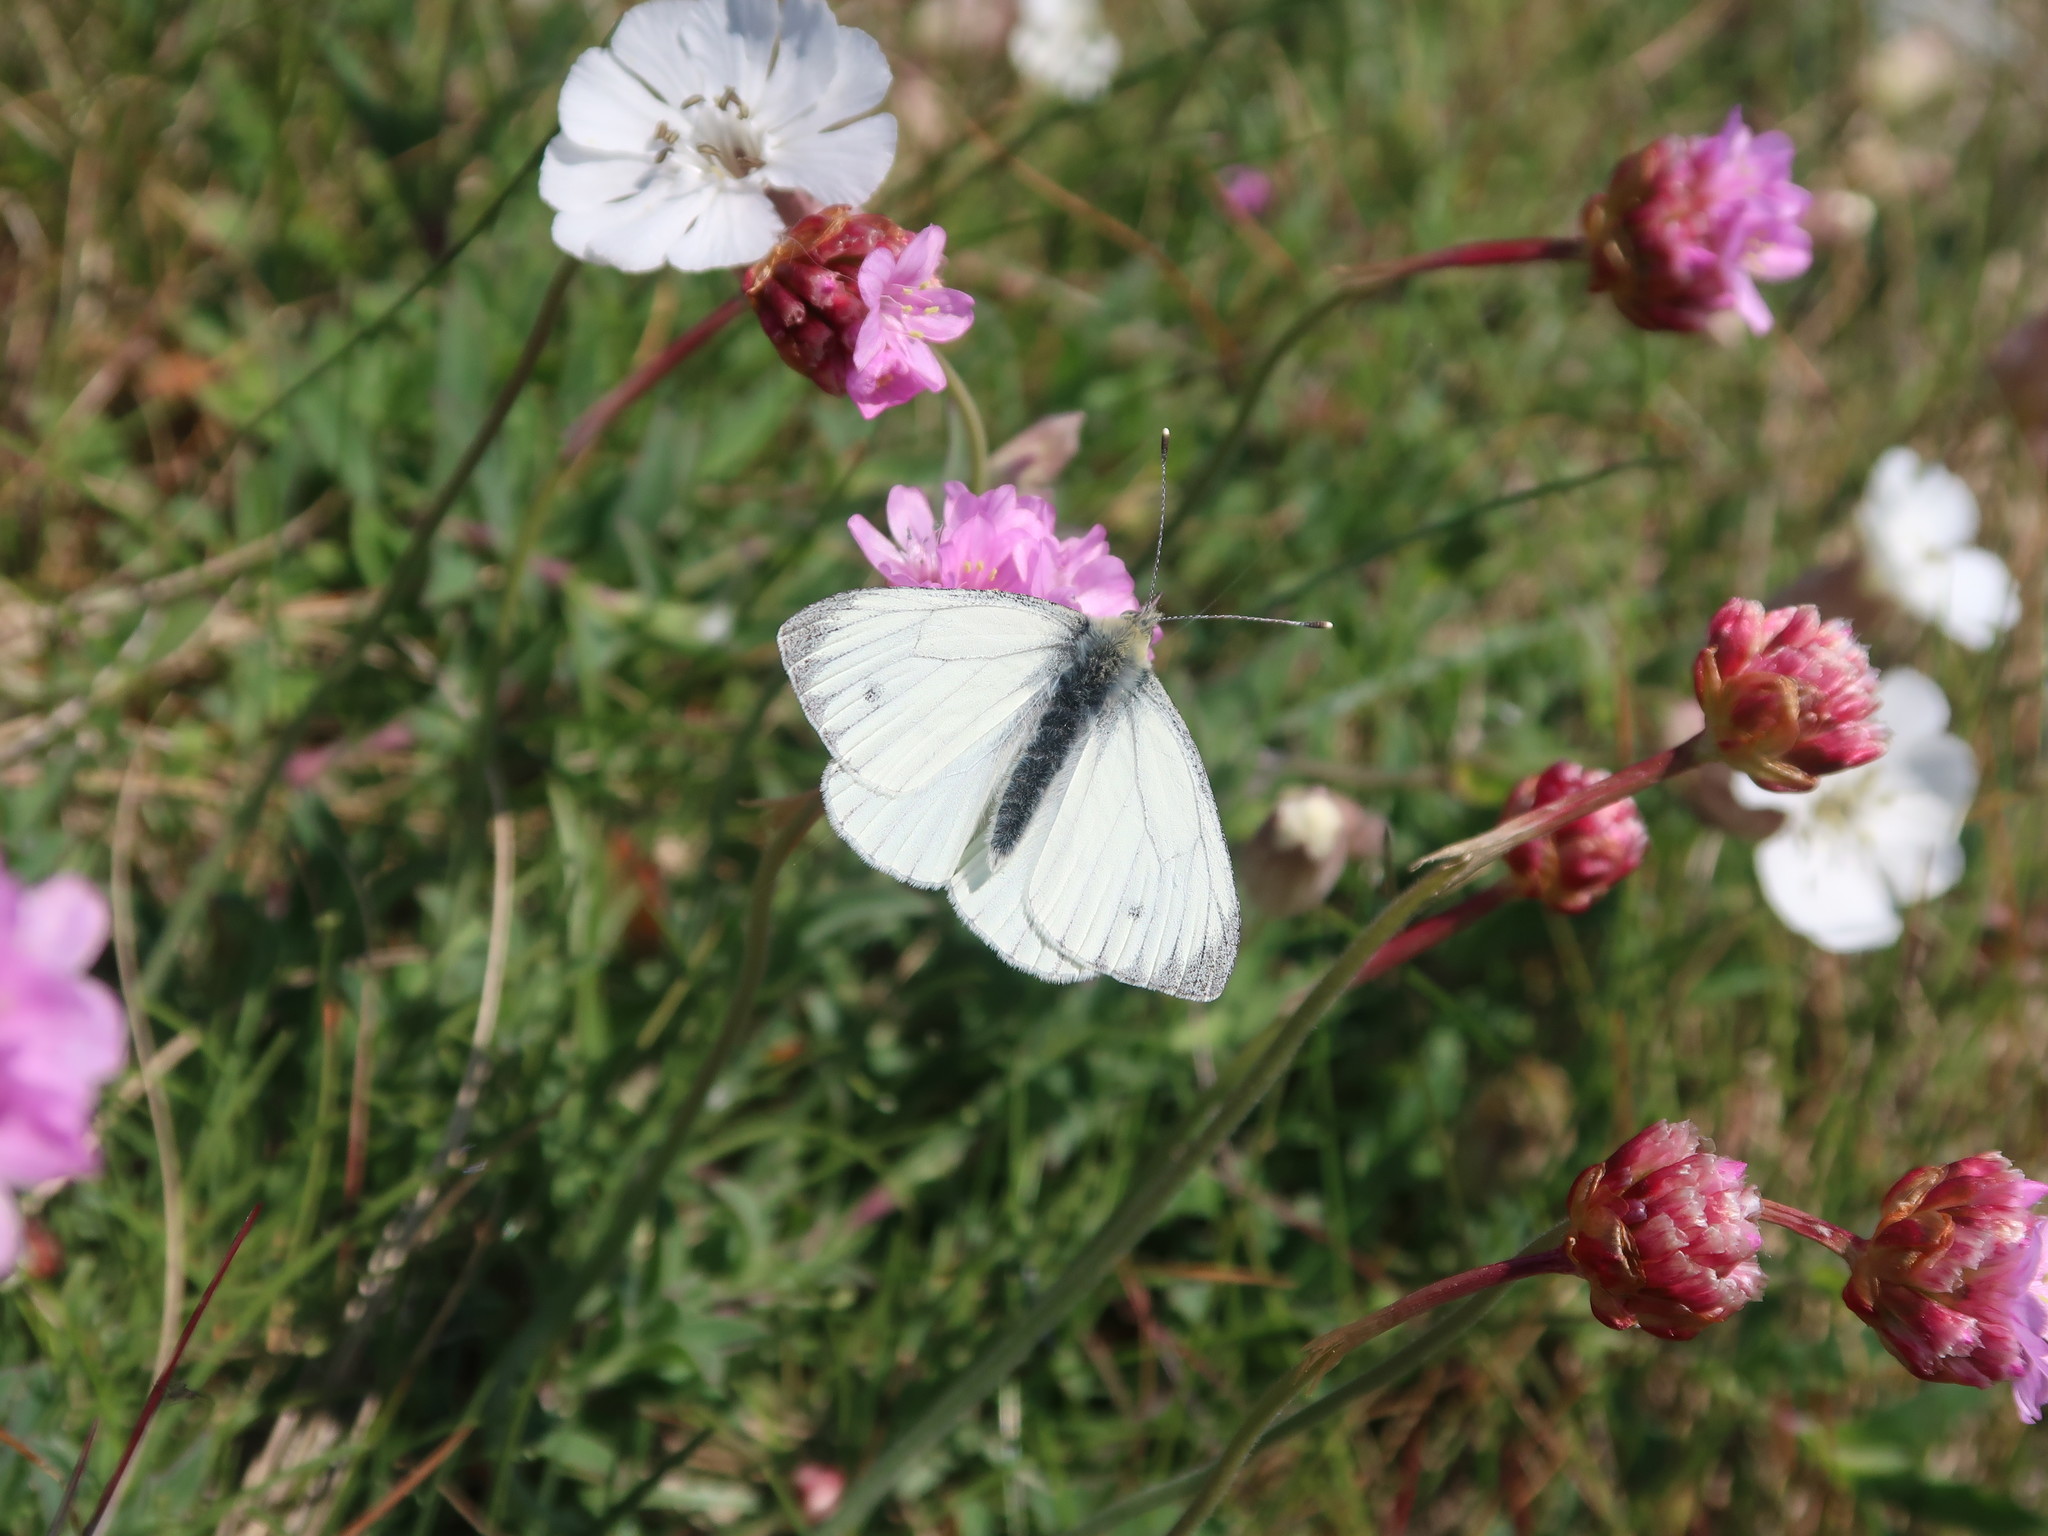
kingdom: Animalia
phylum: Arthropoda
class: Insecta
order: Lepidoptera
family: Pieridae
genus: Pieris
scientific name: Pieris napi
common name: Green-veined white
